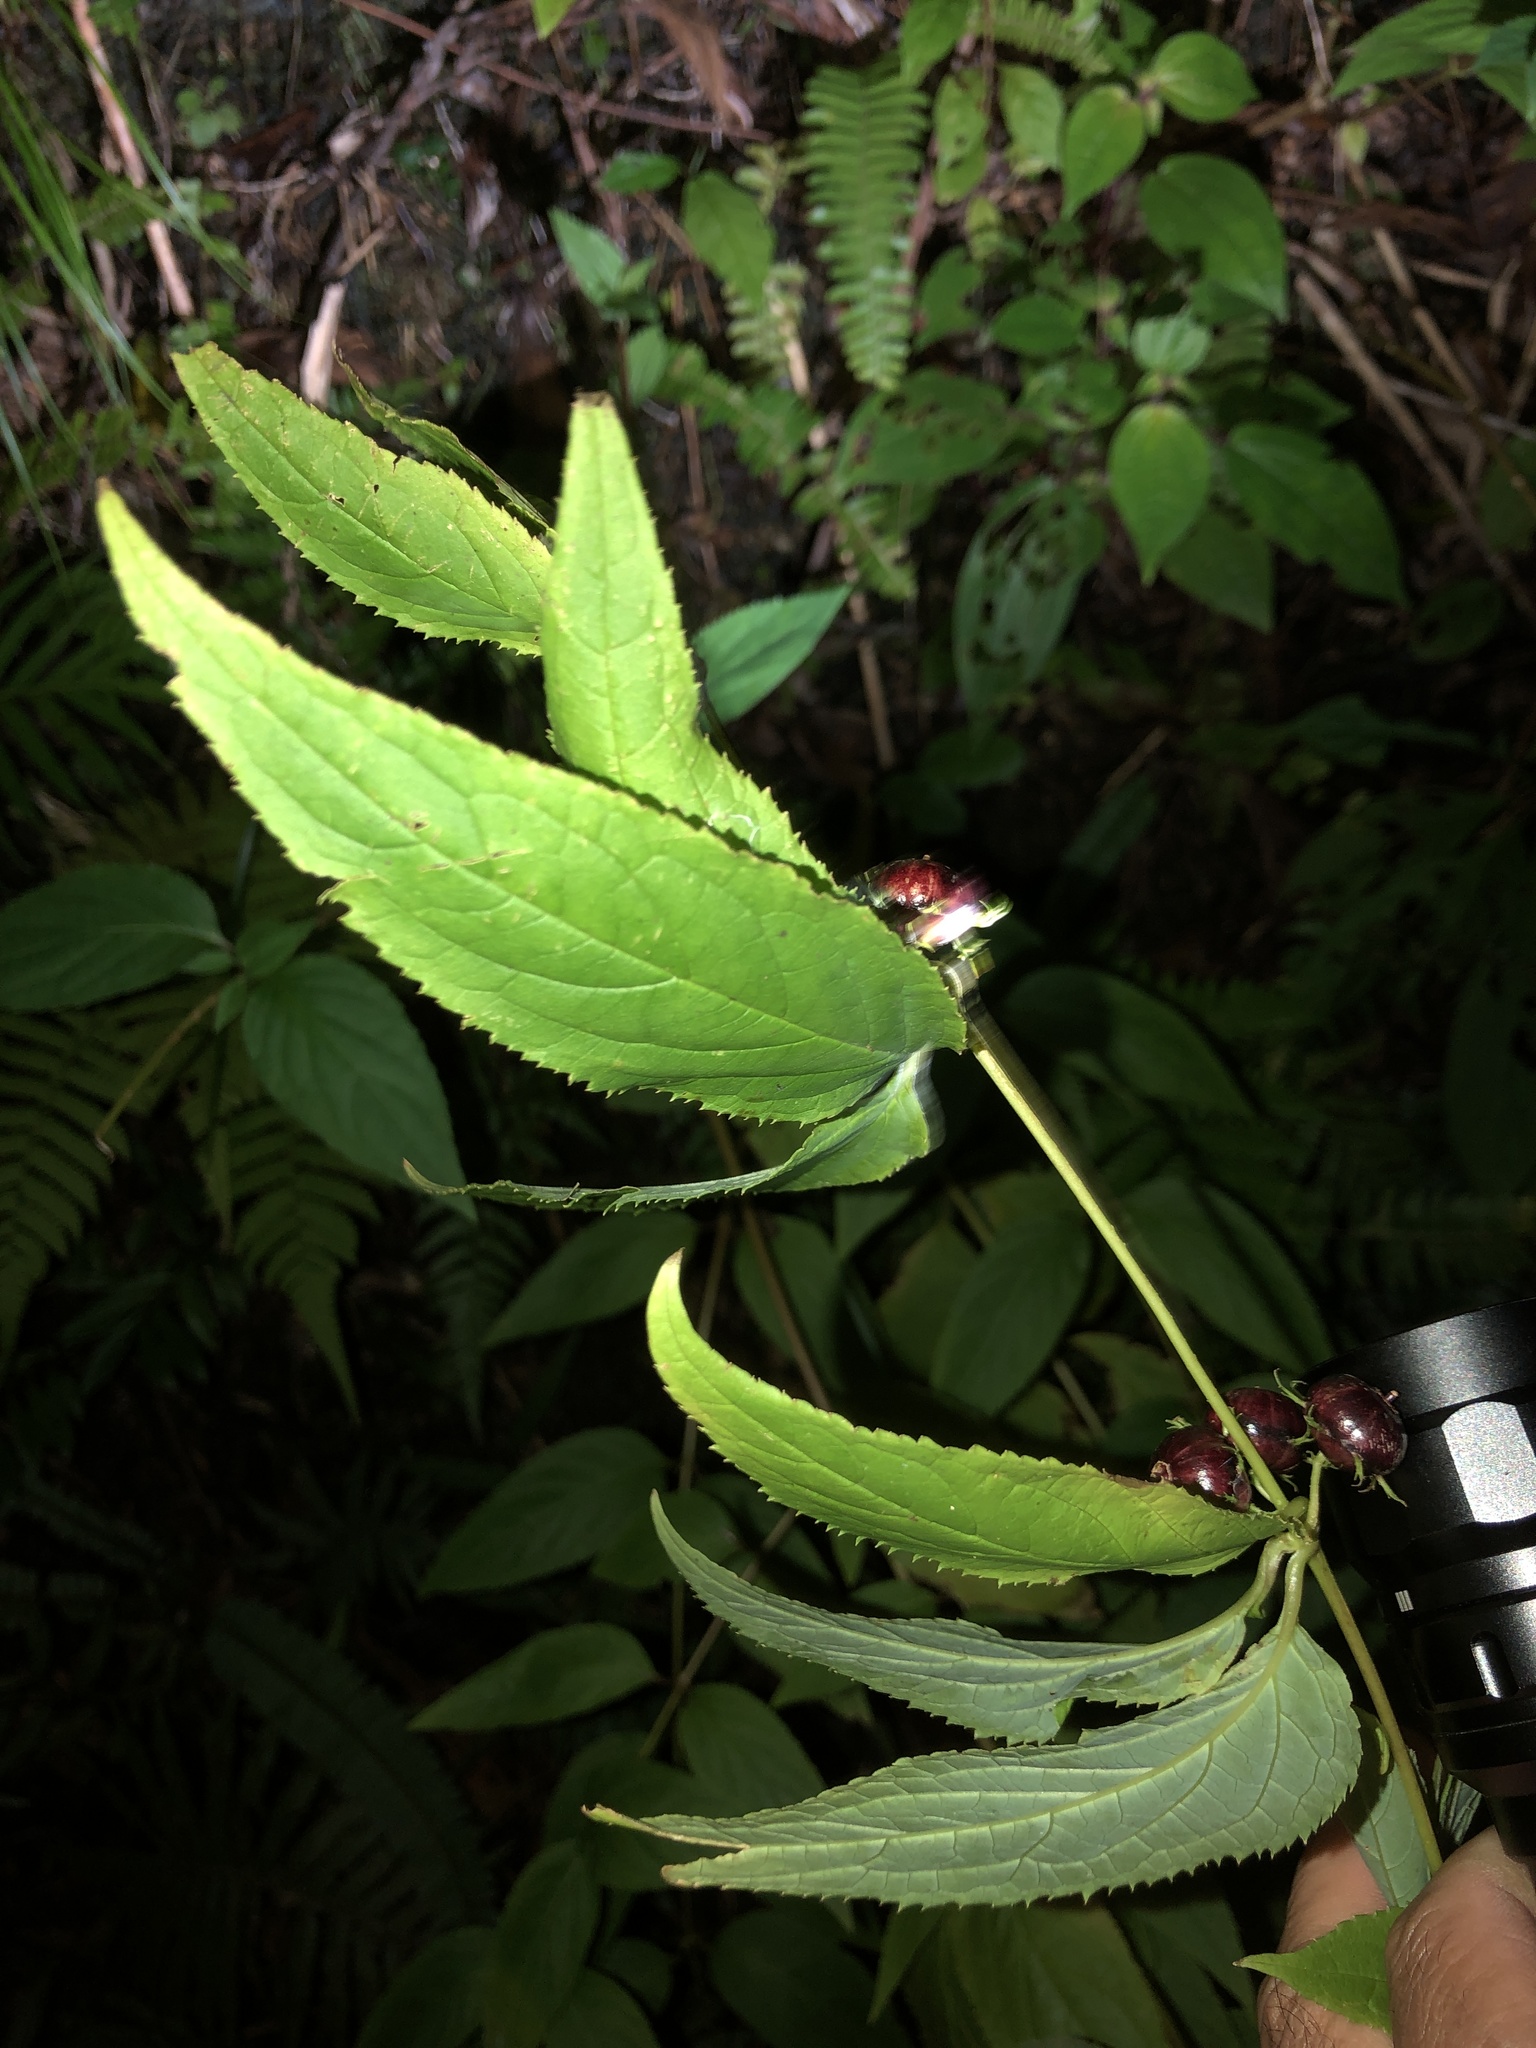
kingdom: Plantae
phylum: Tracheophyta
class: Magnoliopsida
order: Asterales
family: Campanulaceae
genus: Cyclocodon
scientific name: Cyclocodon lancifolius
